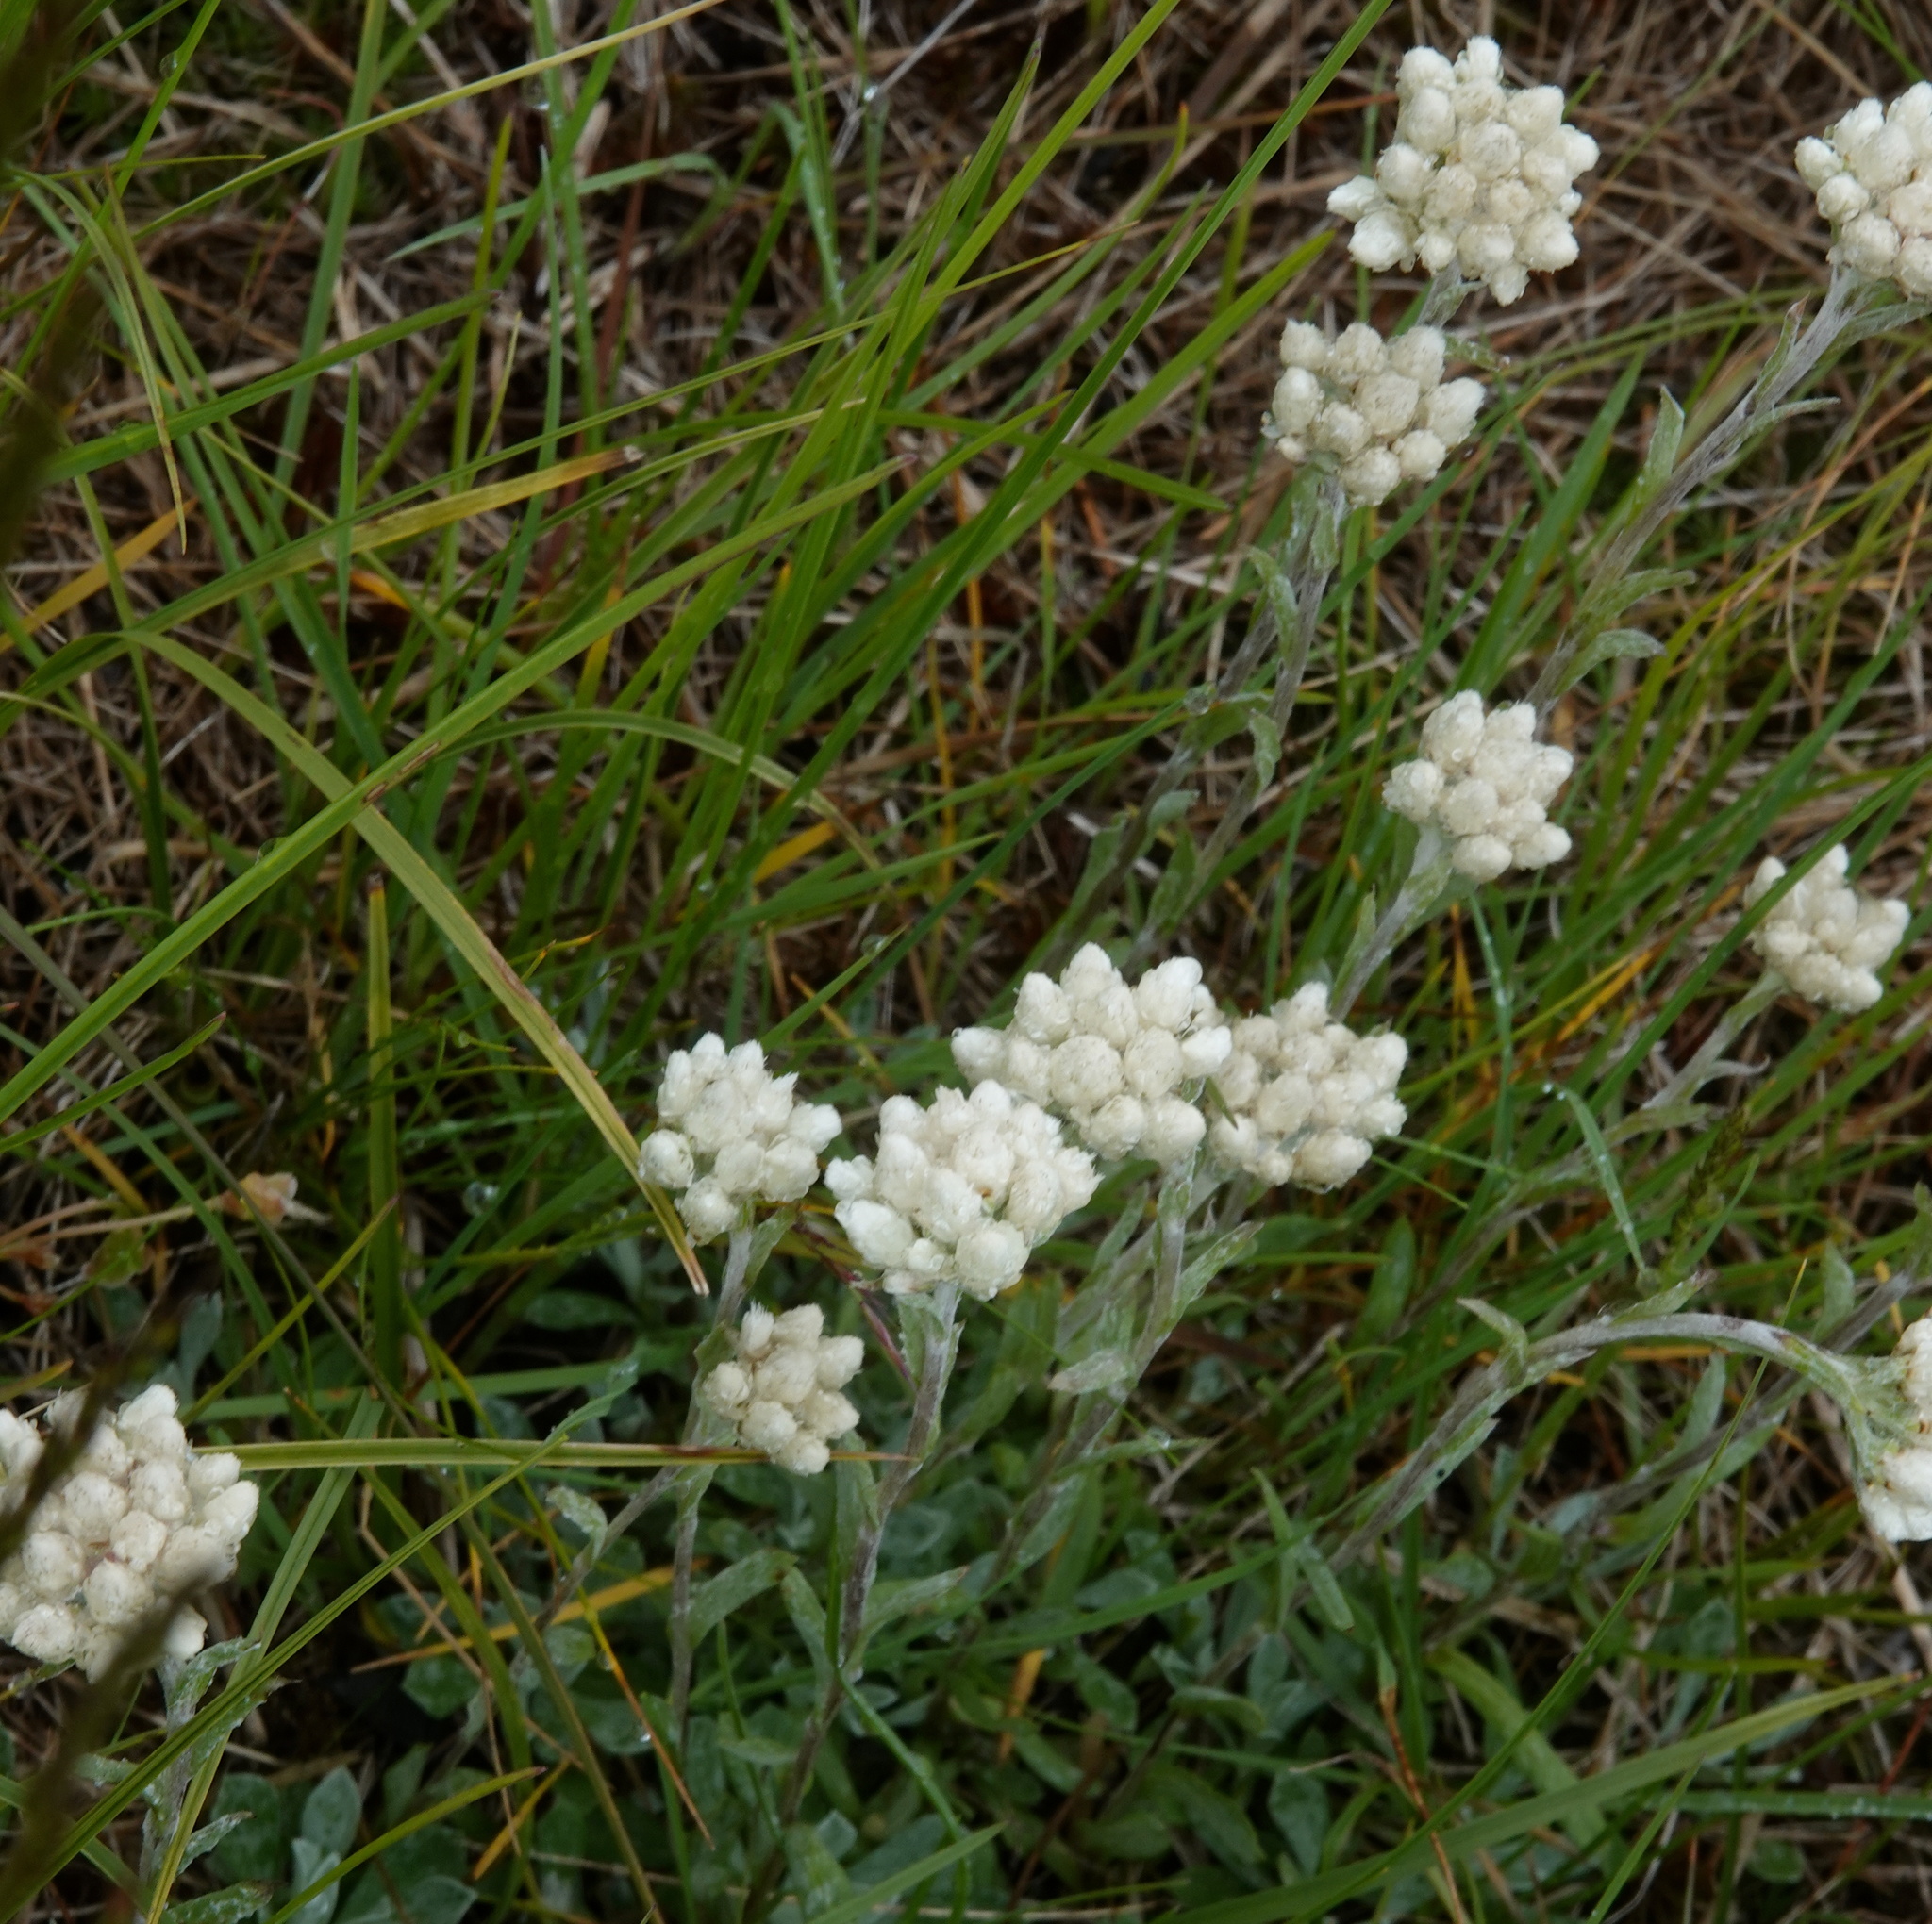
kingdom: Plantae
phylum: Tracheophyta
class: Magnoliopsida
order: Asterales
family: Asteraceae
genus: Anaphalis
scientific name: Anaphalis margaritacea
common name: Pearly everlasting
